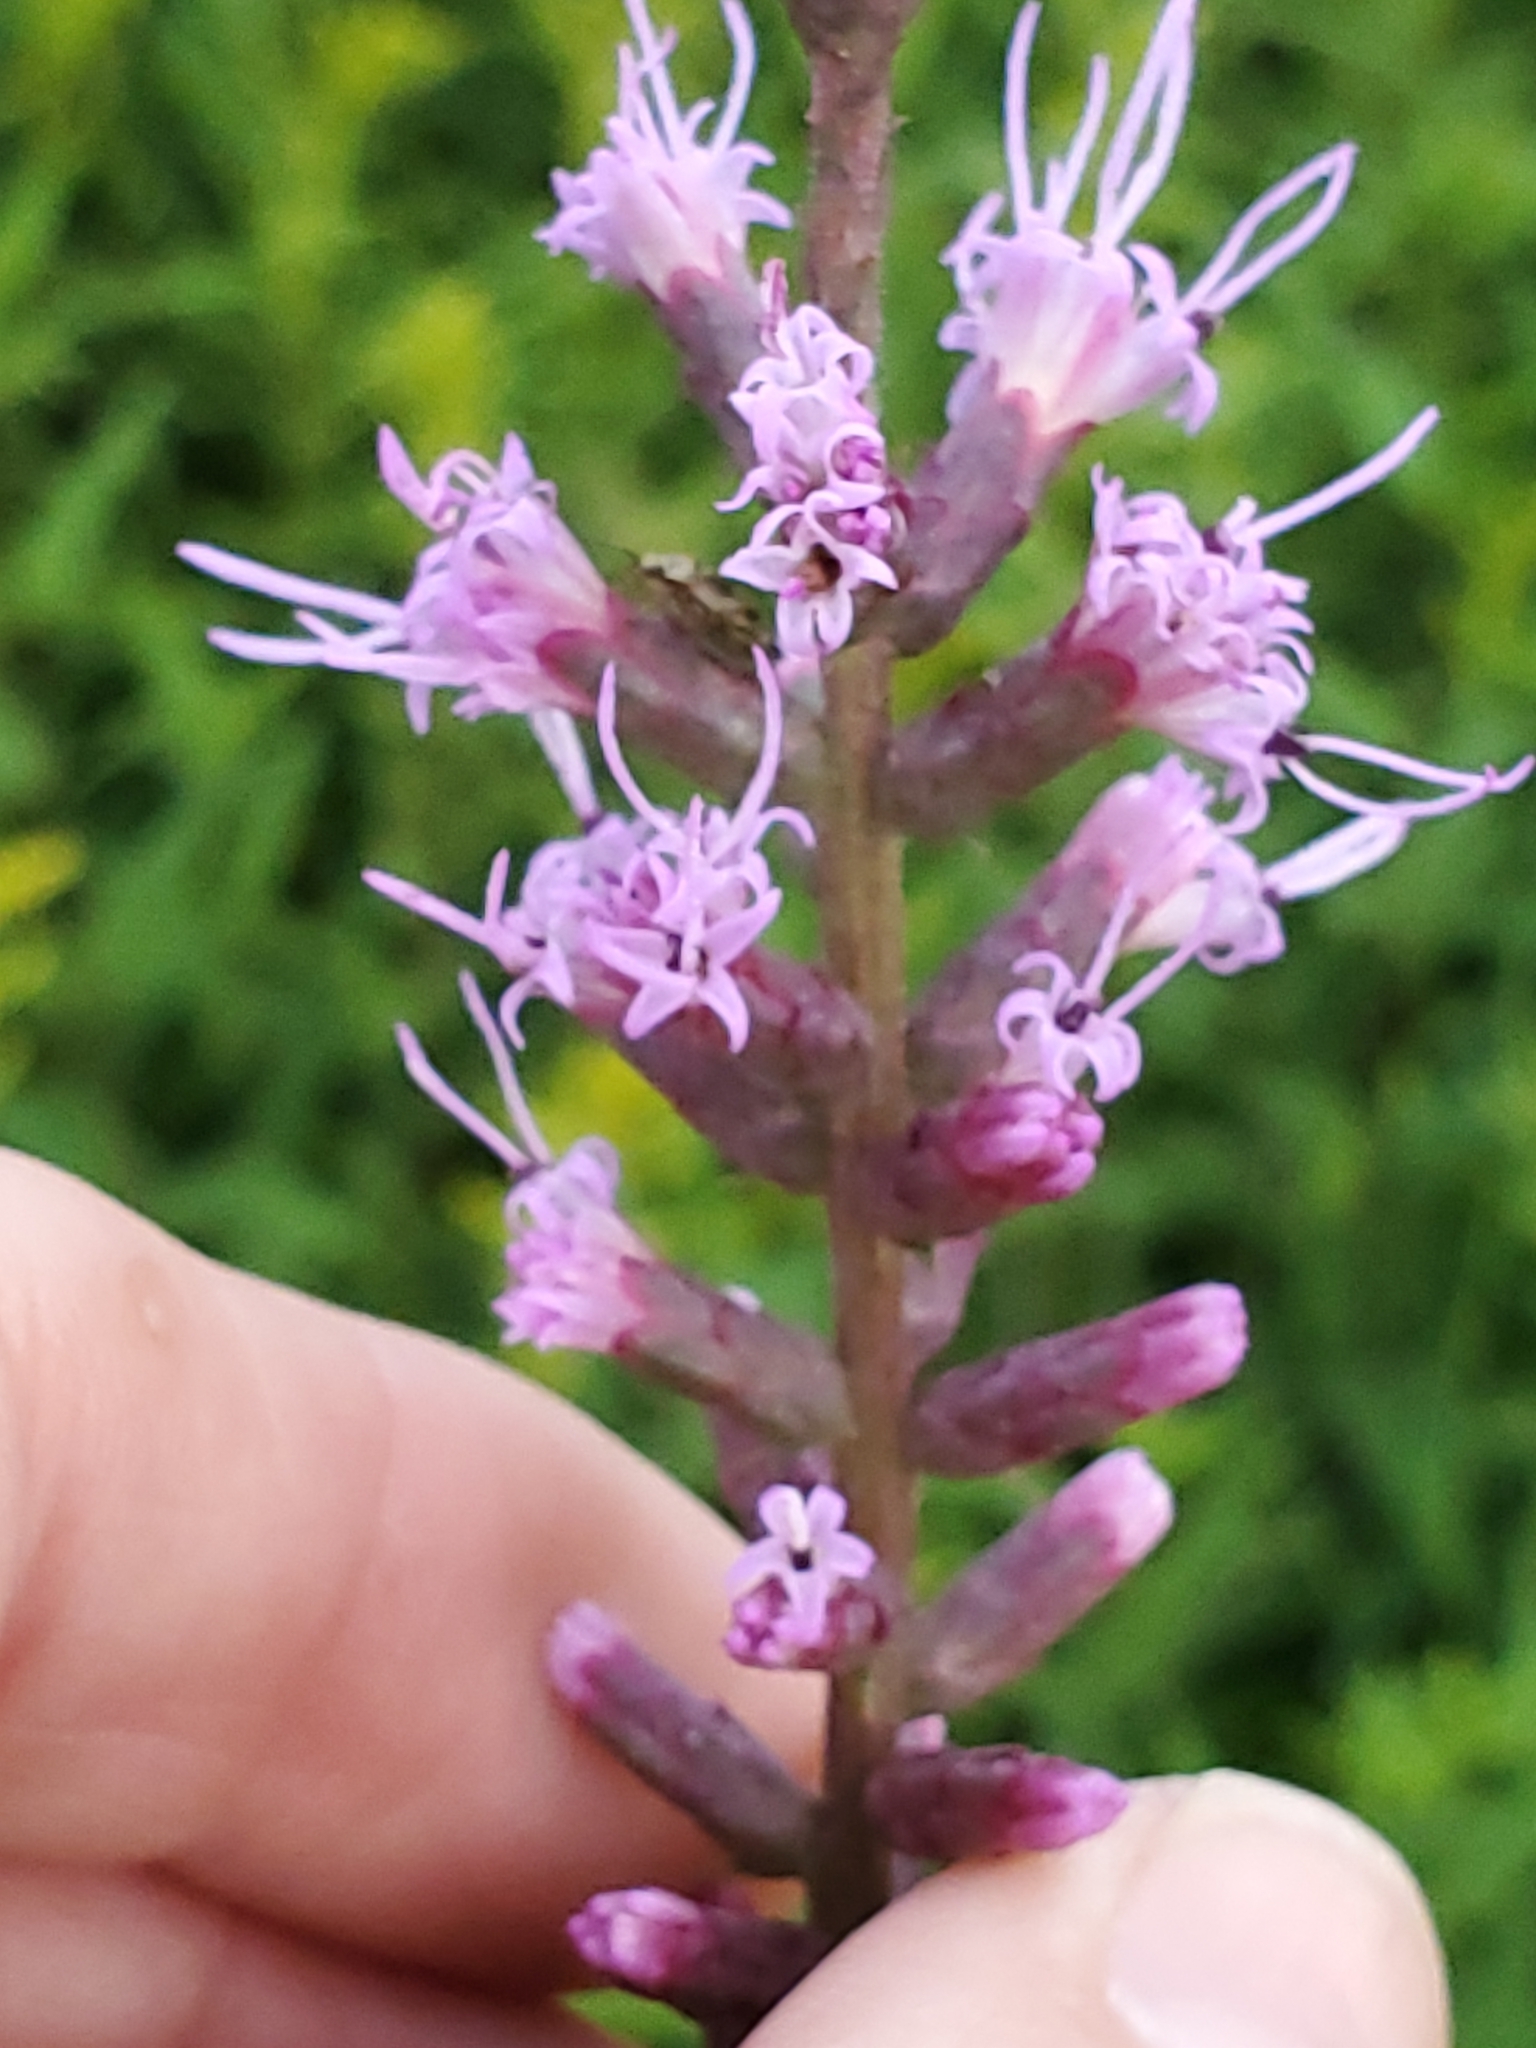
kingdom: Plantae
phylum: Tracheophyta
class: Magnoliopsida
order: Asterales
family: Asteraceae
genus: Liatris
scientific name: Liatris spicata
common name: Florist gayfeather
